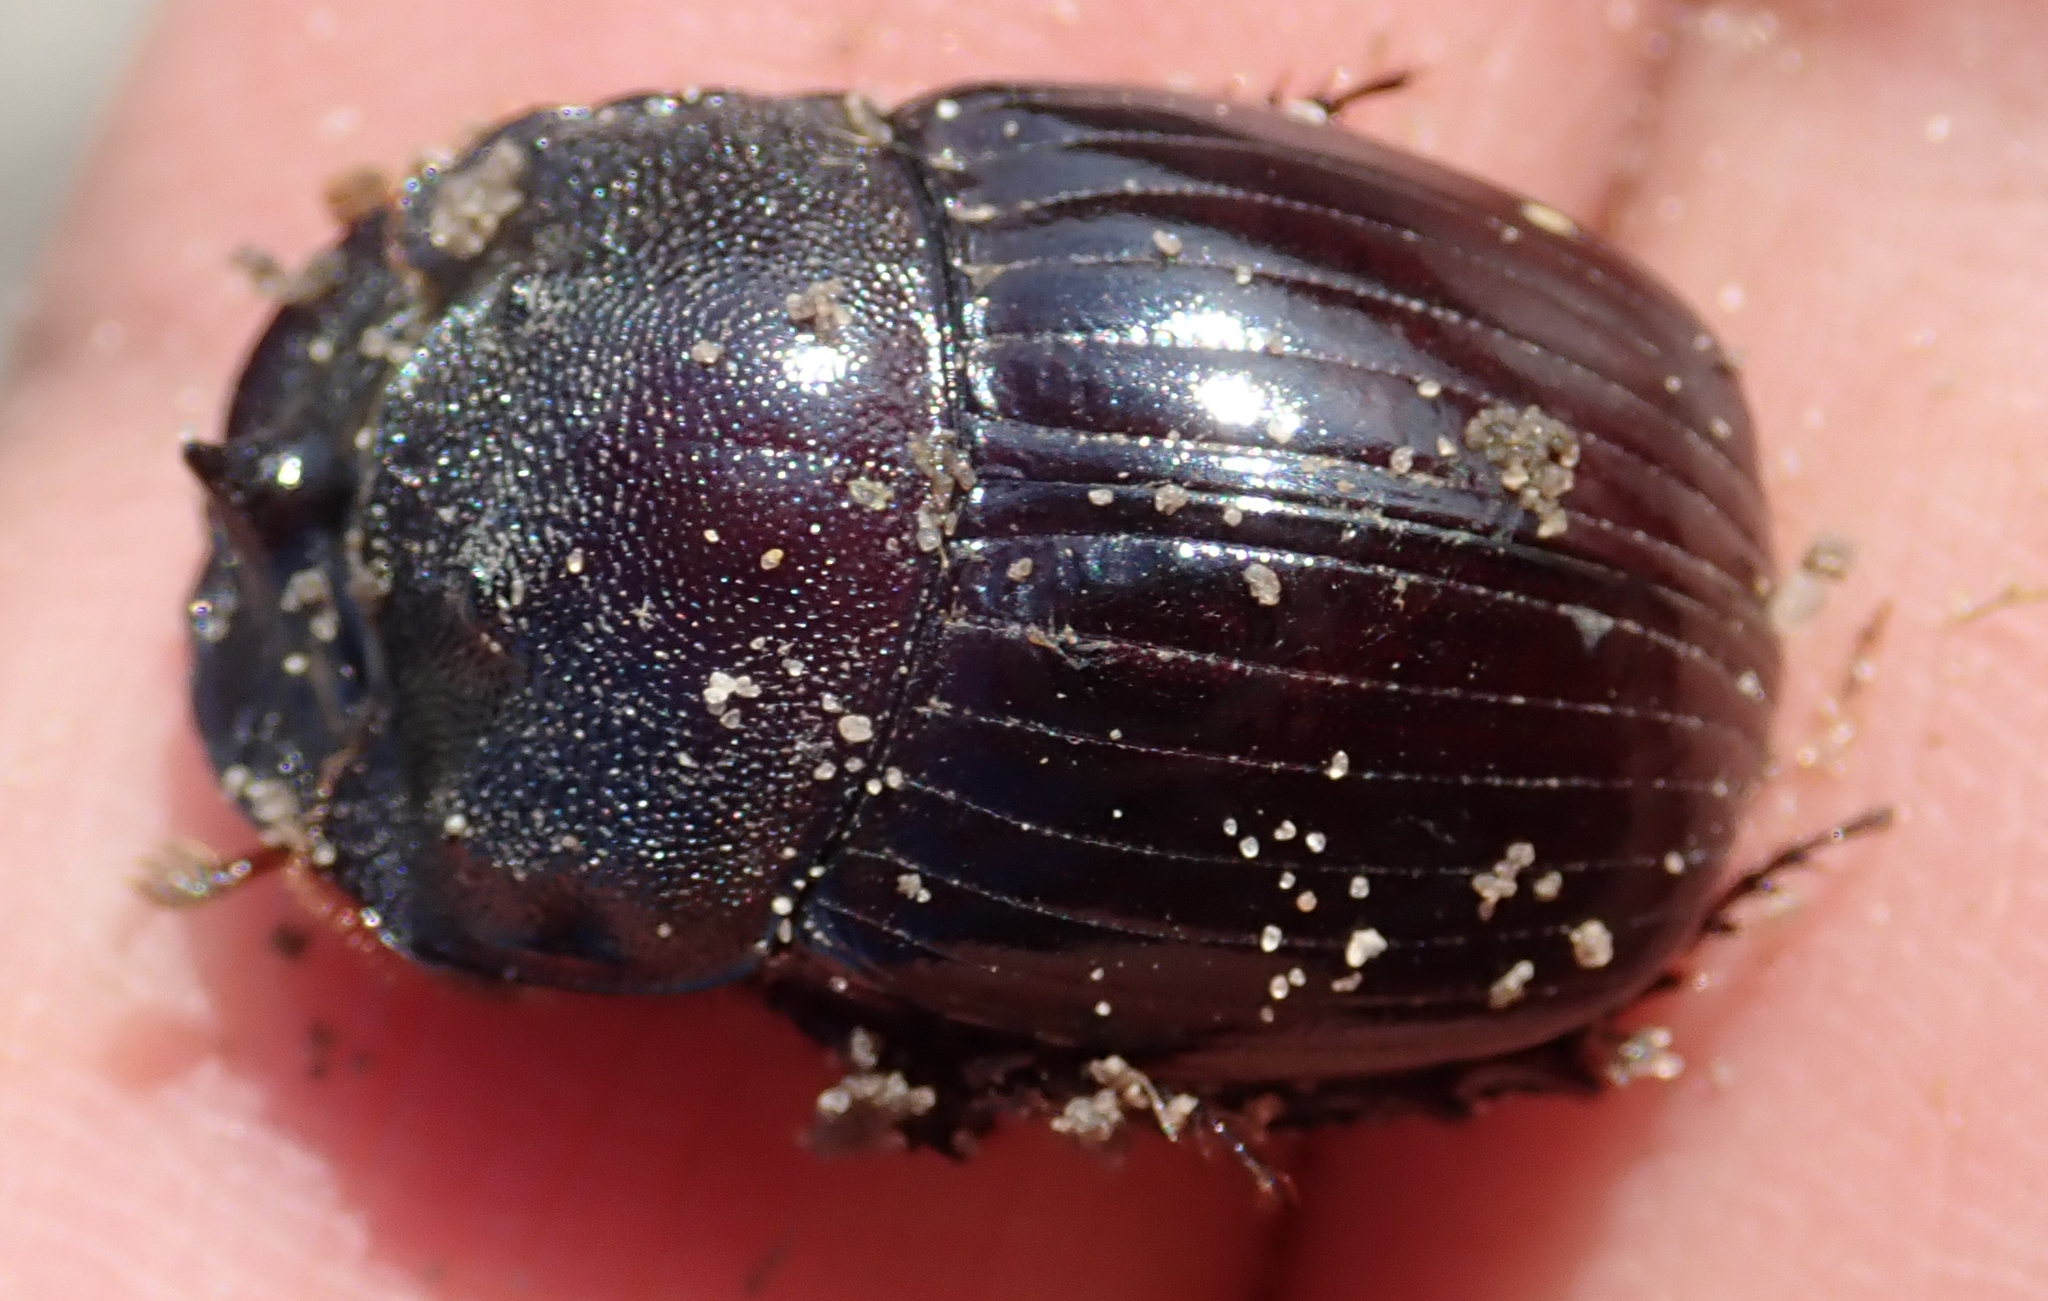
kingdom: Animalia
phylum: Arthropoda
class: Insecta
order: Coleoptera
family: Scarabaeidae
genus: Copris
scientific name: Copris elphenor
